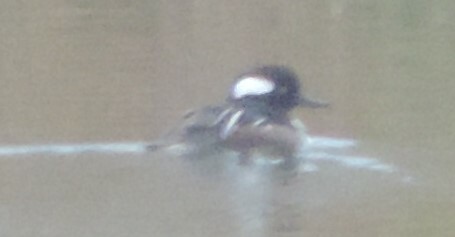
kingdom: Animalia
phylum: Chordata
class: Aves
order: Anseriformes
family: Anatidae
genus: Lophodytes
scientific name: Lophodytes cucullatus
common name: Hooded merganser
